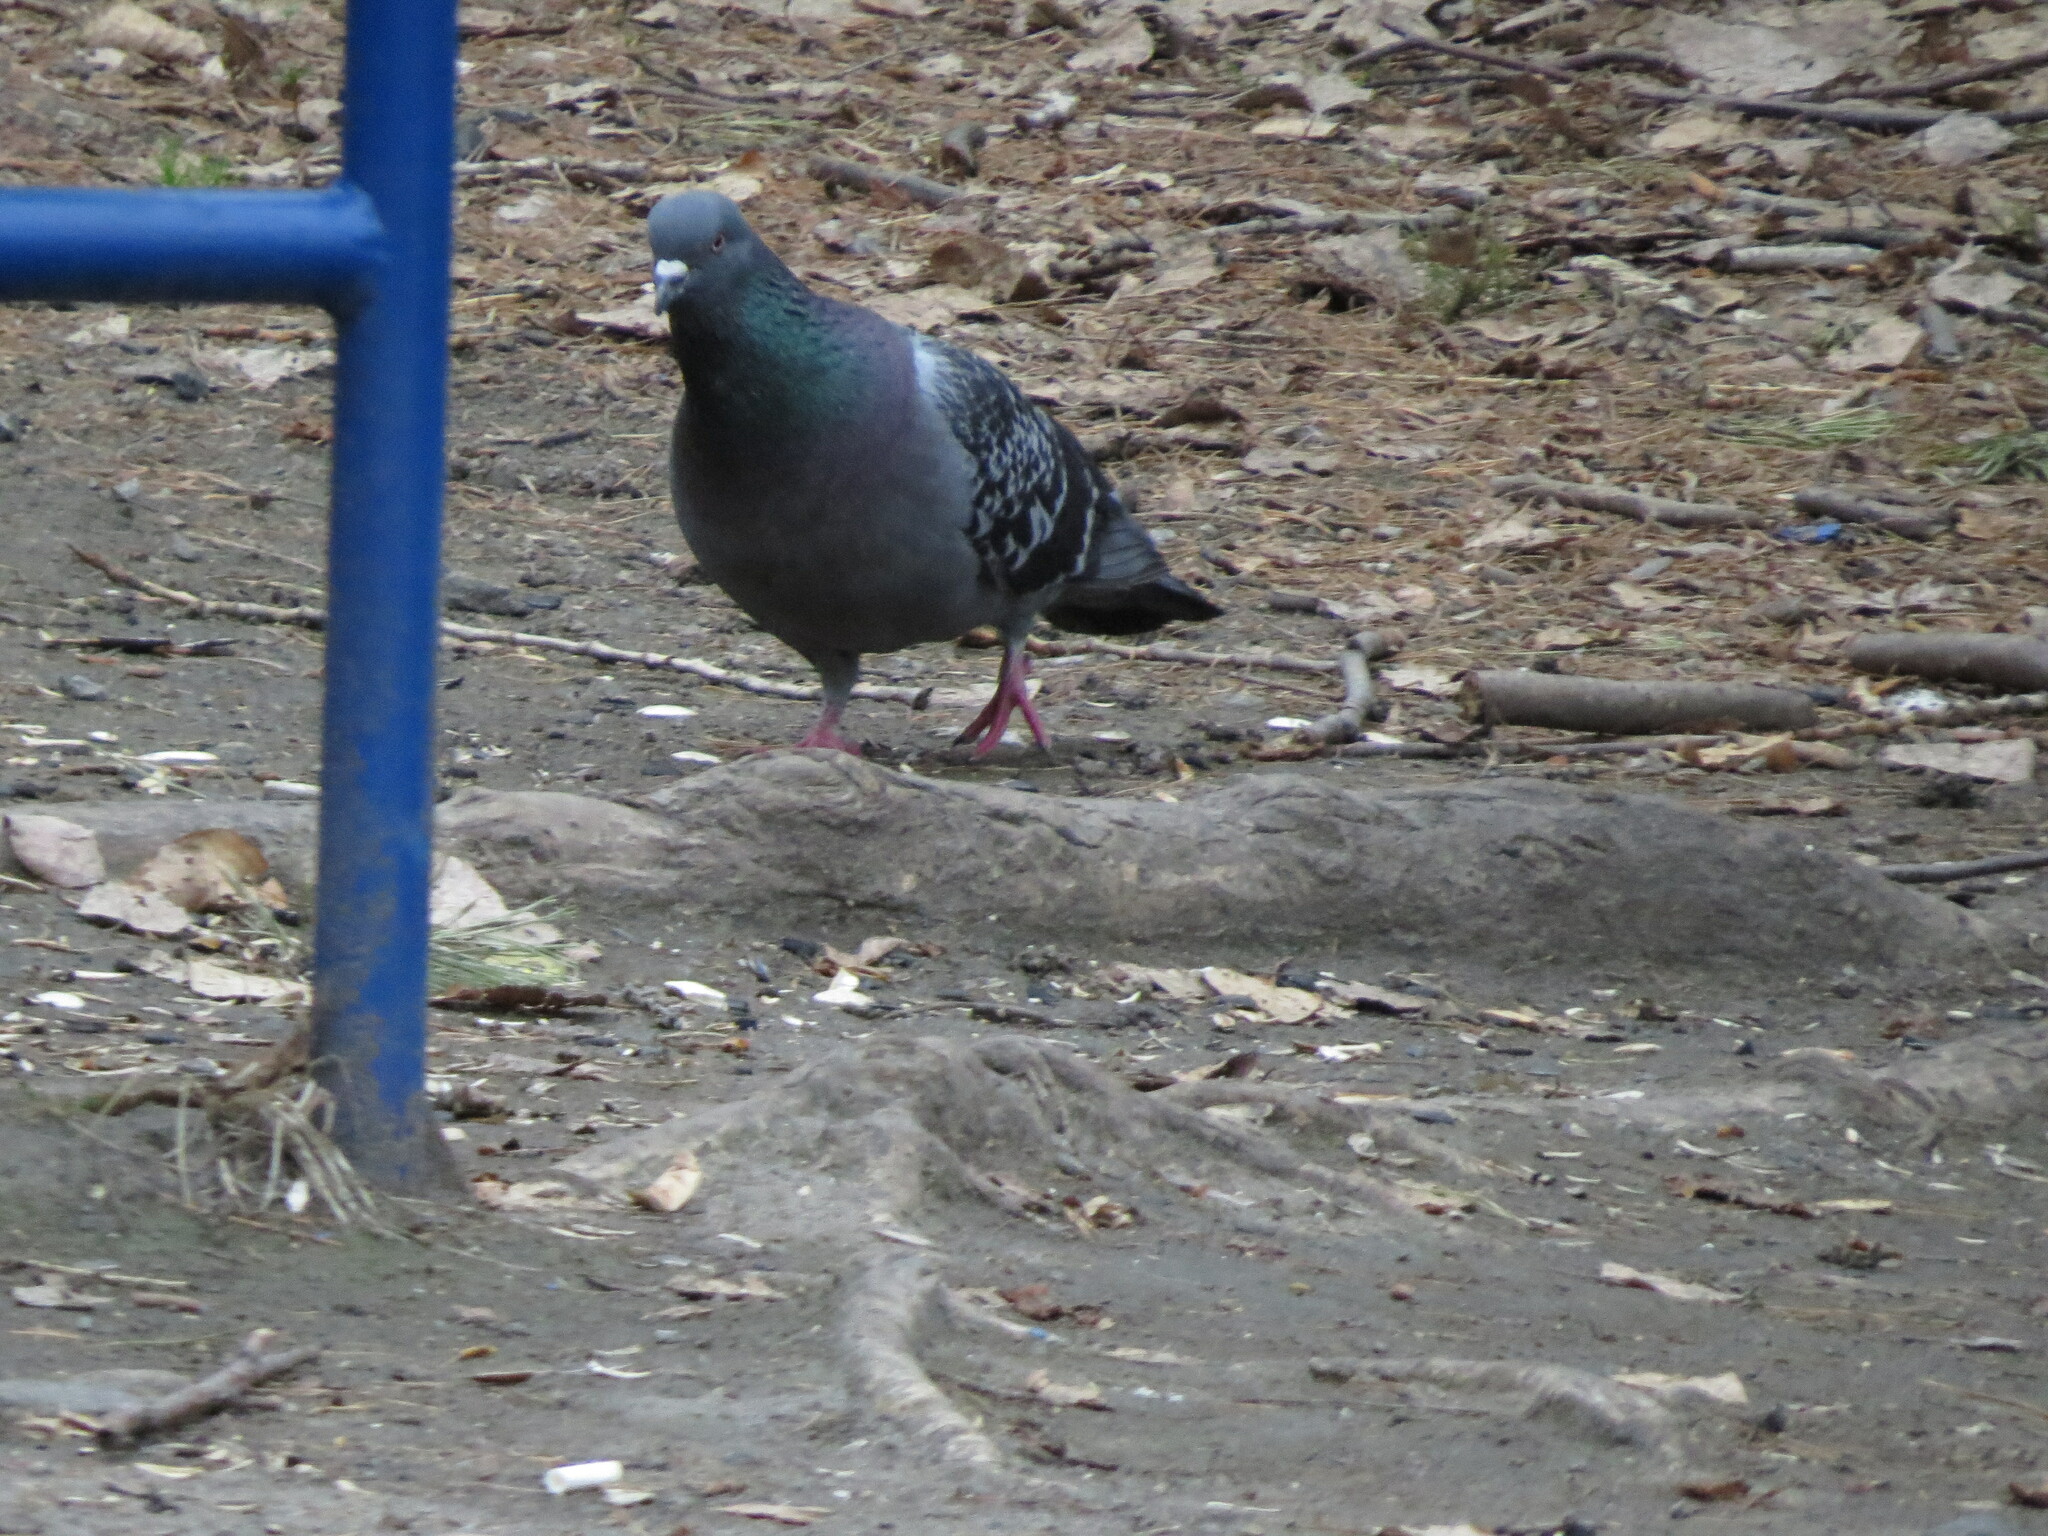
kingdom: Animalia
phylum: Chordata
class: Aves
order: Columbiformes
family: Columbidae
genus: Columba
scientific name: Columba livia
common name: Rock pigeon
